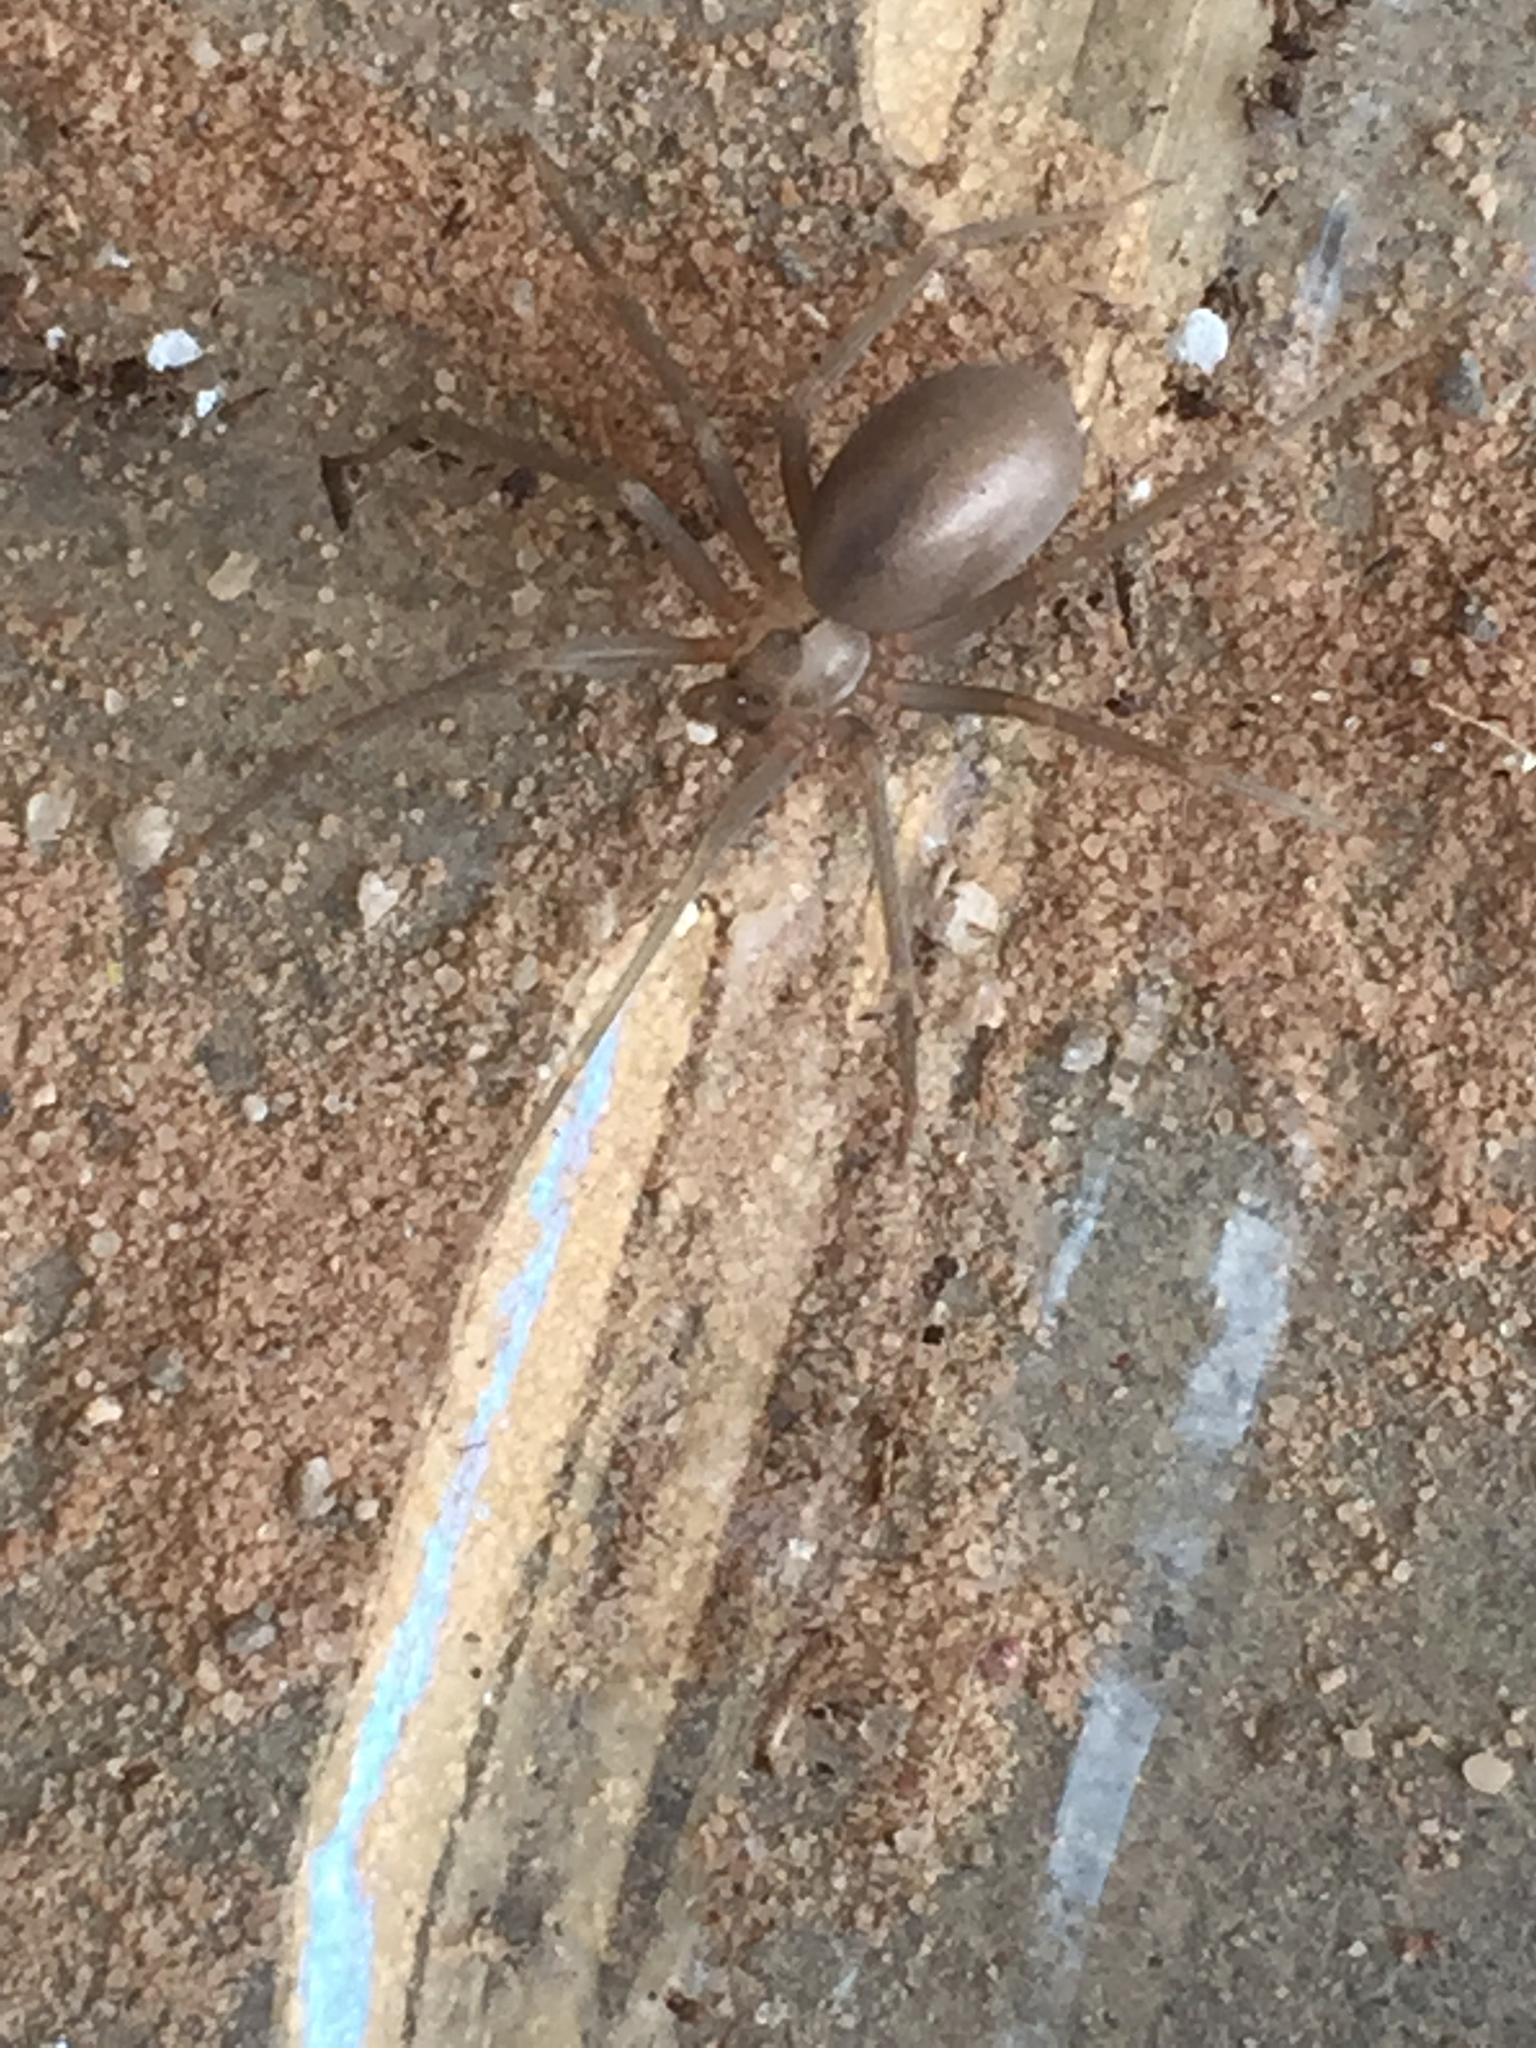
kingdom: Animalia
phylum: Arthropoda
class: Arachnida
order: Araneae
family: Sicariidae
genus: Loxosceles
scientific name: Loxosceles reclusa
